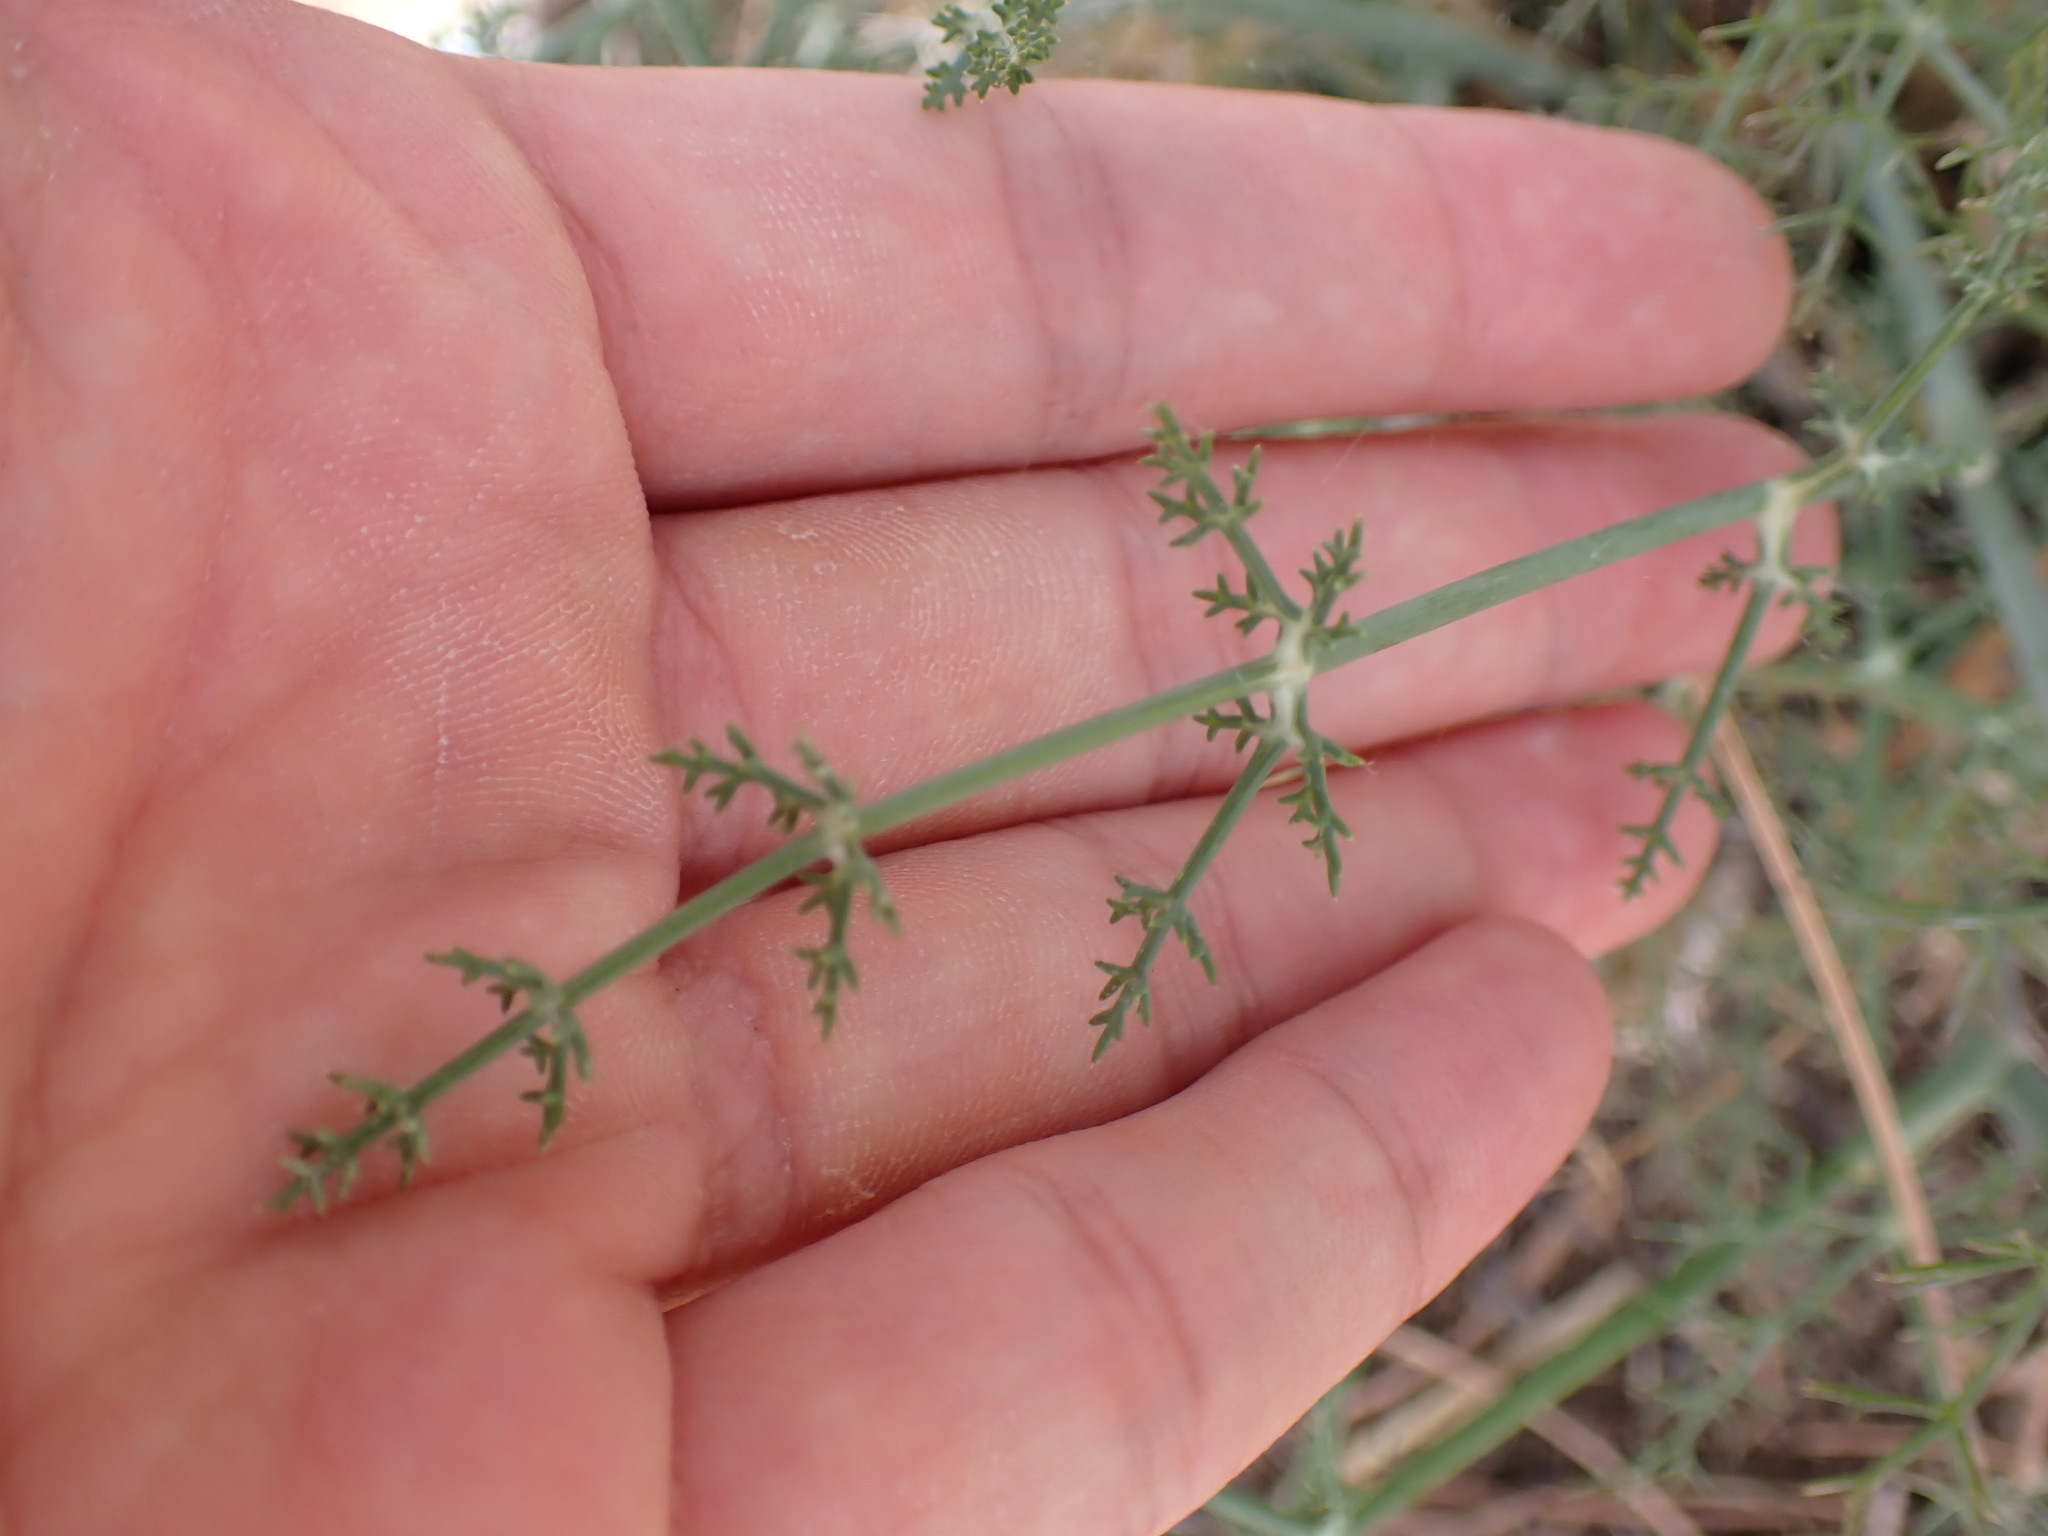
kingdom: Plantae
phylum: Tracheophyta
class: Magnoliopsida
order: Apiales
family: Apiaceae
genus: Foeniculum
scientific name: Foeniculum vulgare
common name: Fennel
